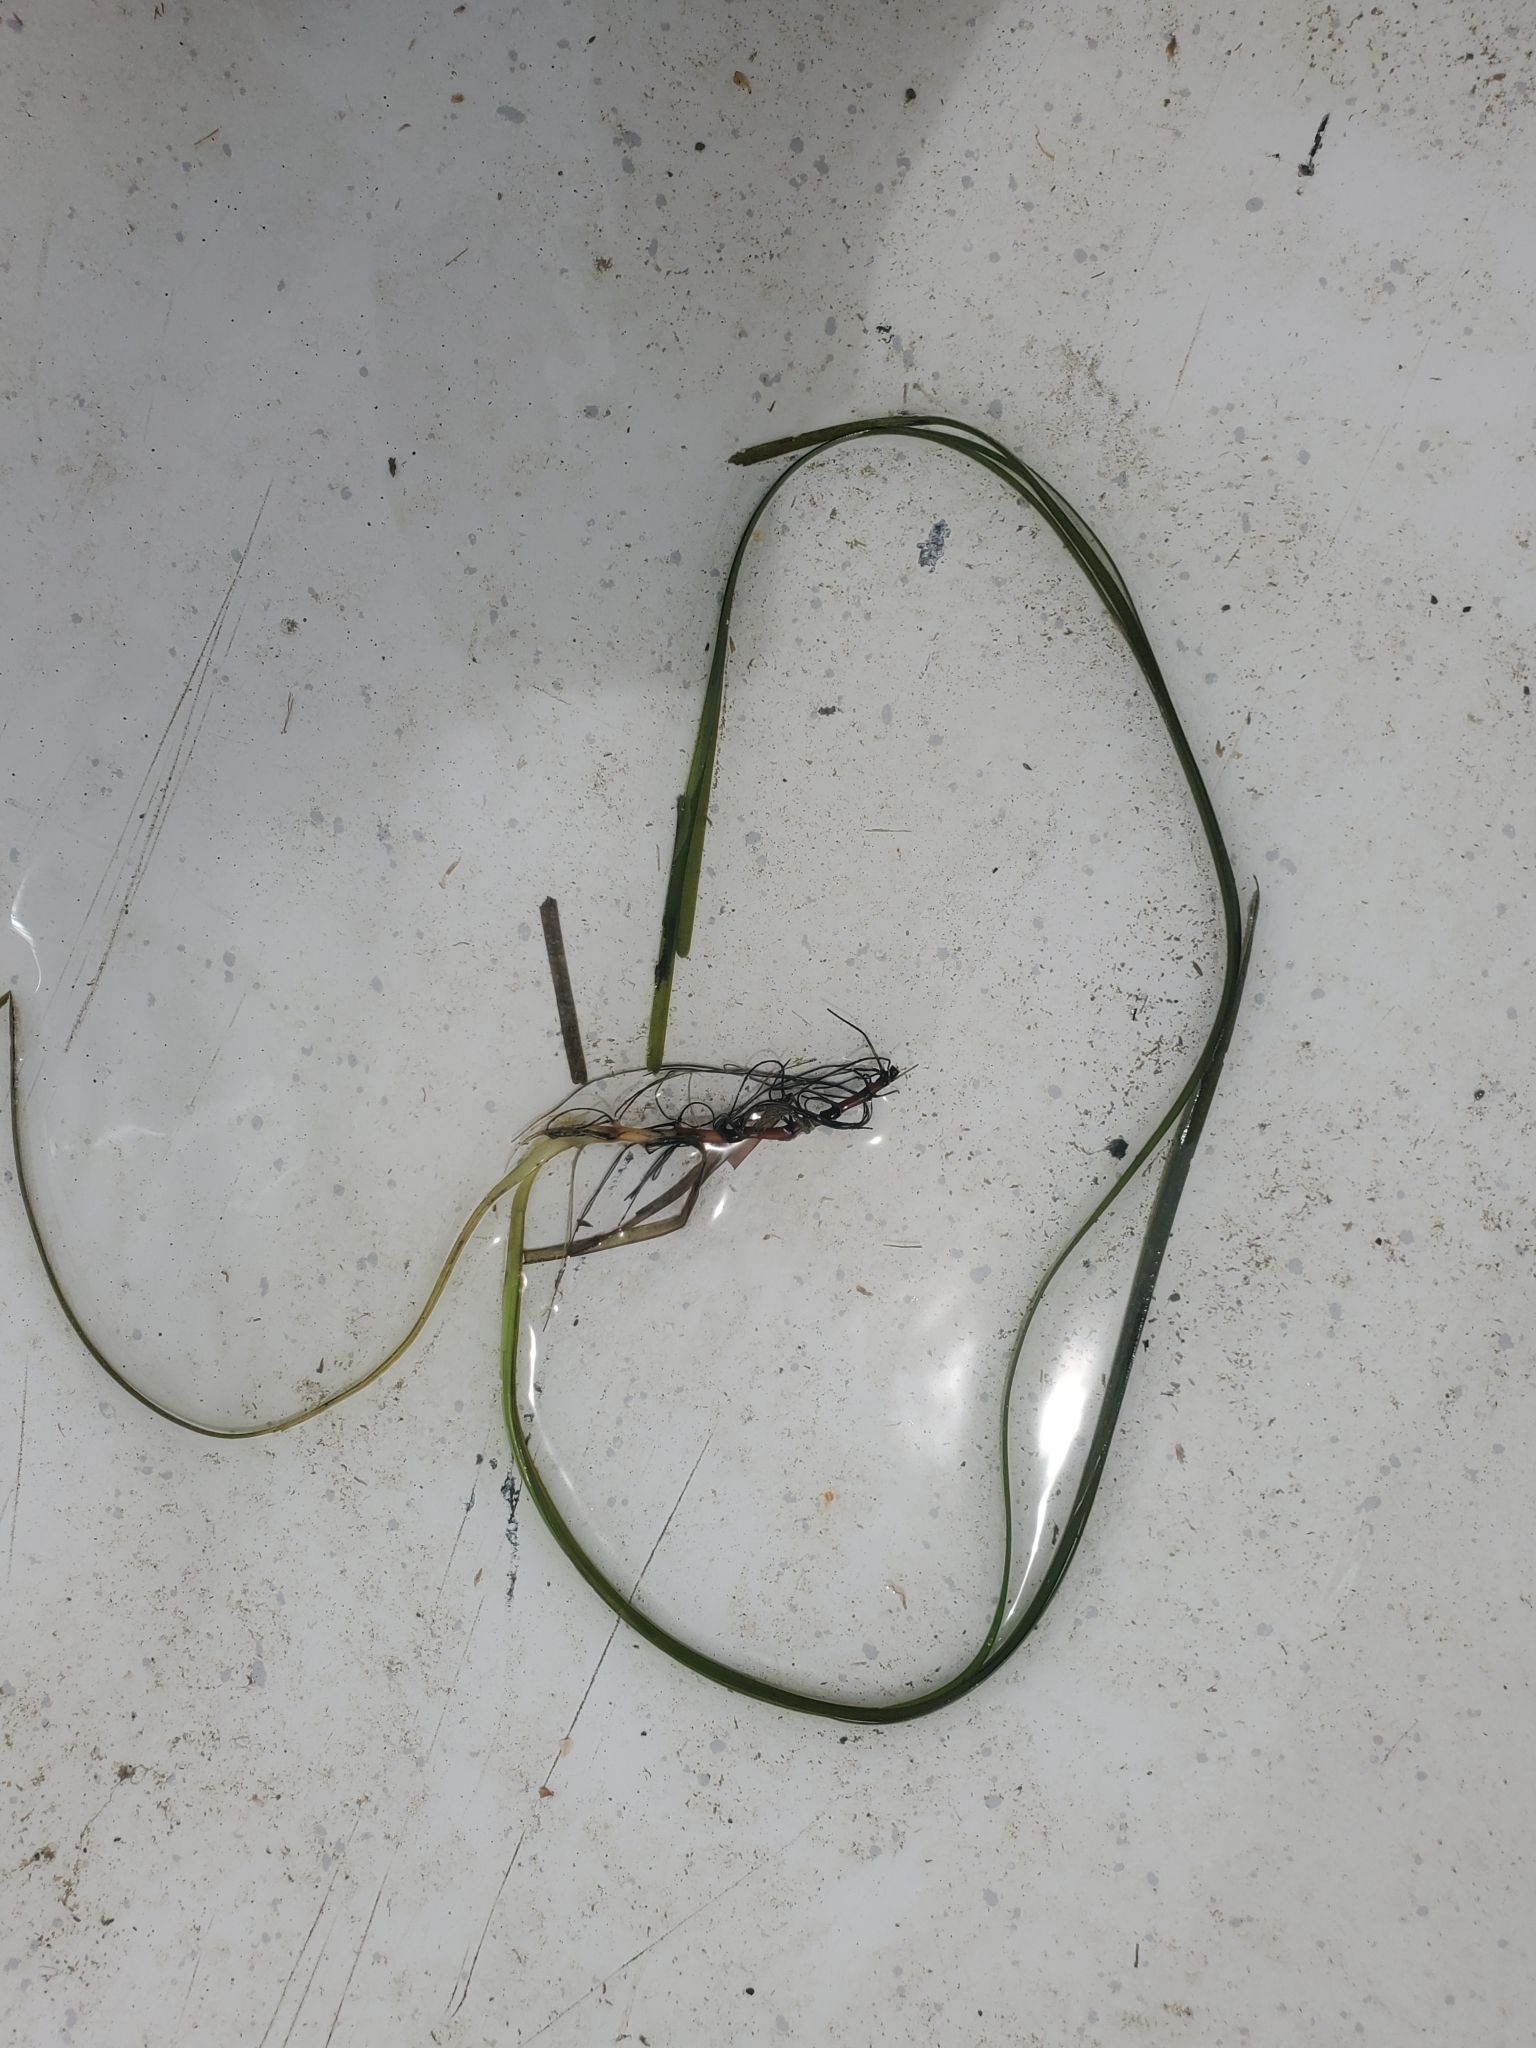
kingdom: Plantae
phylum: Tracheophyta
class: Liliopsida
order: Alismatales
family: Zosteraceae
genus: Zostera
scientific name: Zostera marina
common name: Eelgrass
